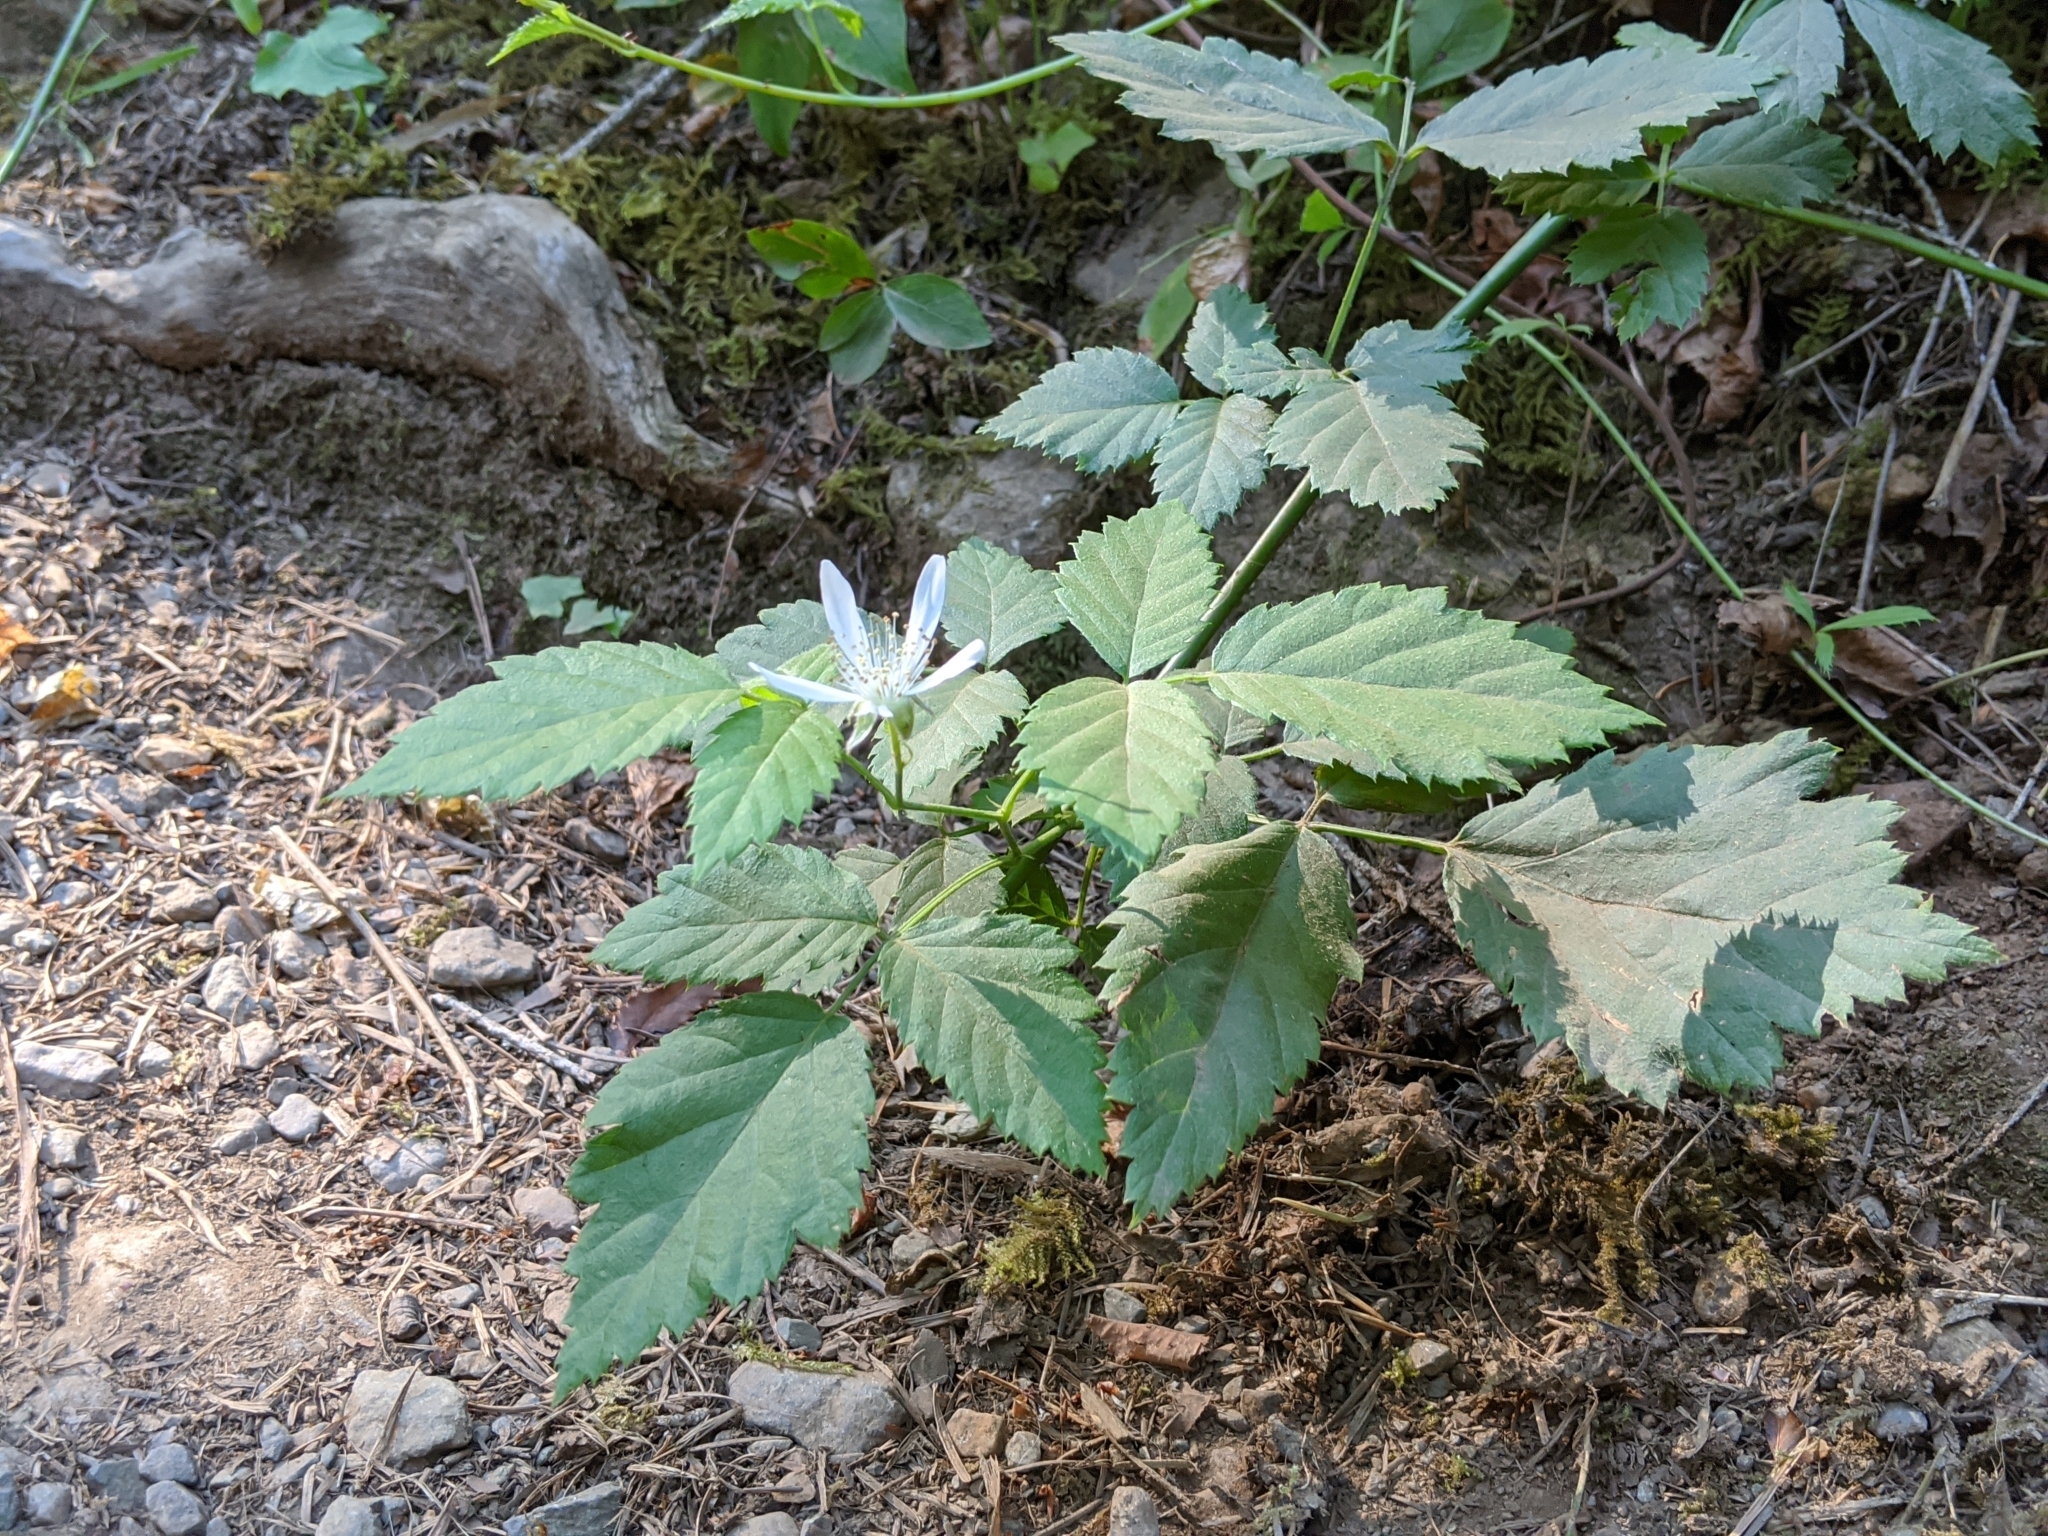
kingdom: Plantae
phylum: Tracheophyta
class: Magnoliopsida
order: Rosales
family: Rosaceae
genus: Rubus
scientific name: Rubus ursinus
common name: Pacific blackberry
